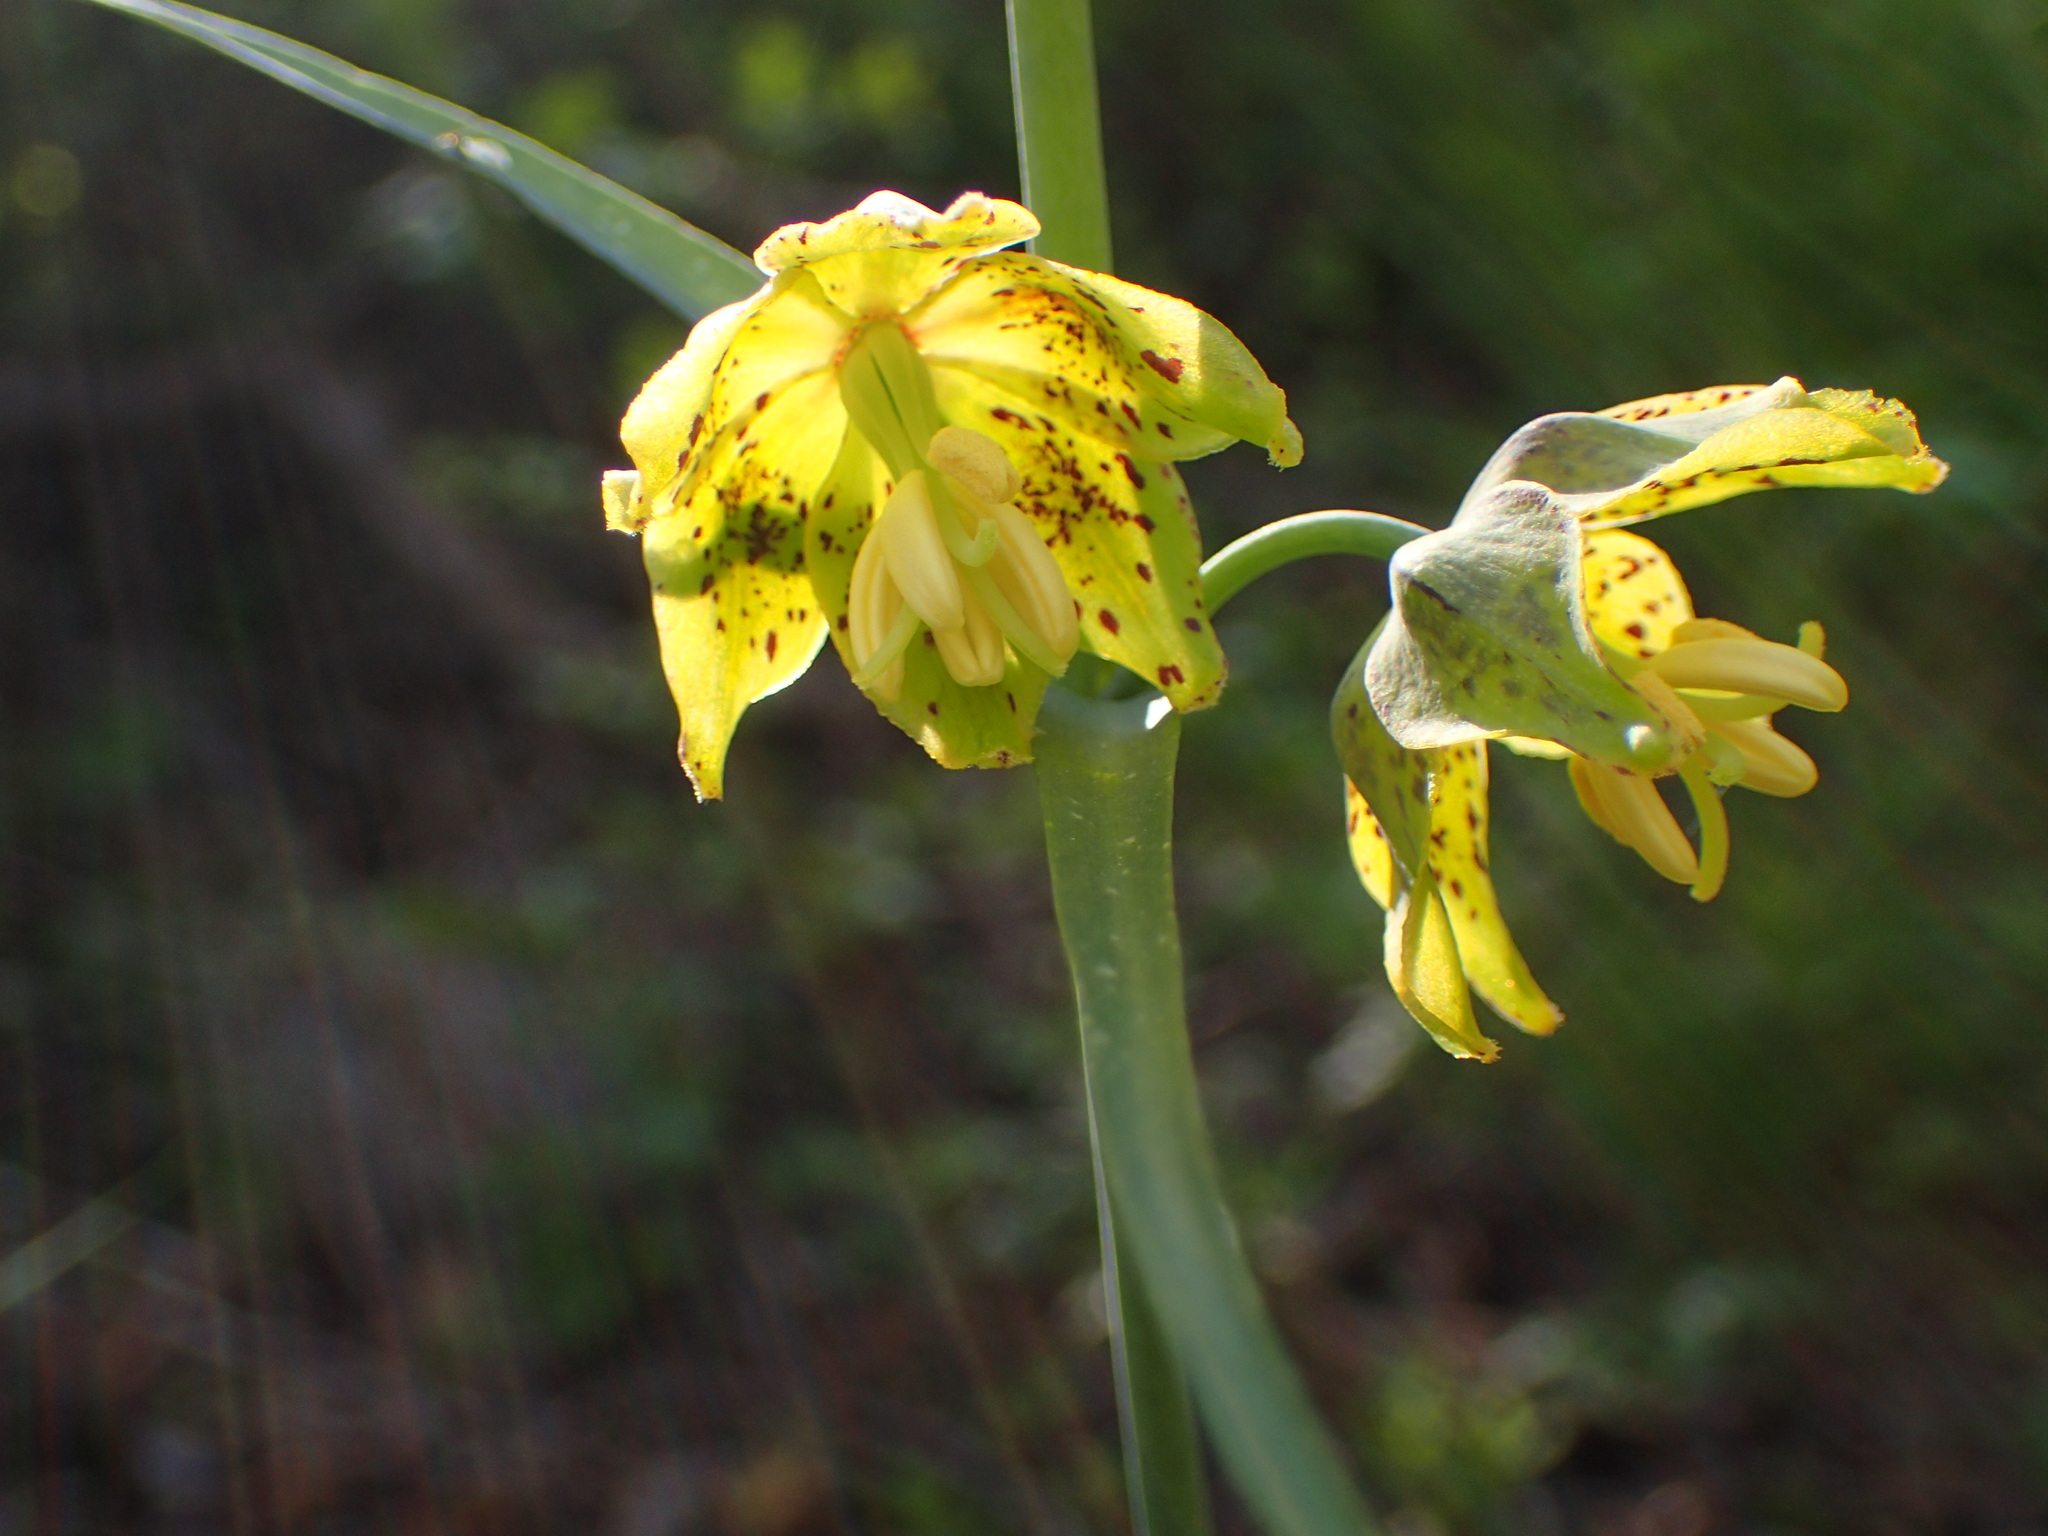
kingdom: Plantae
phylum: Tracheophyta
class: Liliopsida
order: Liliales
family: Liliaceae
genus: Fritillaria
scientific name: Fritillaria ojaiensis
